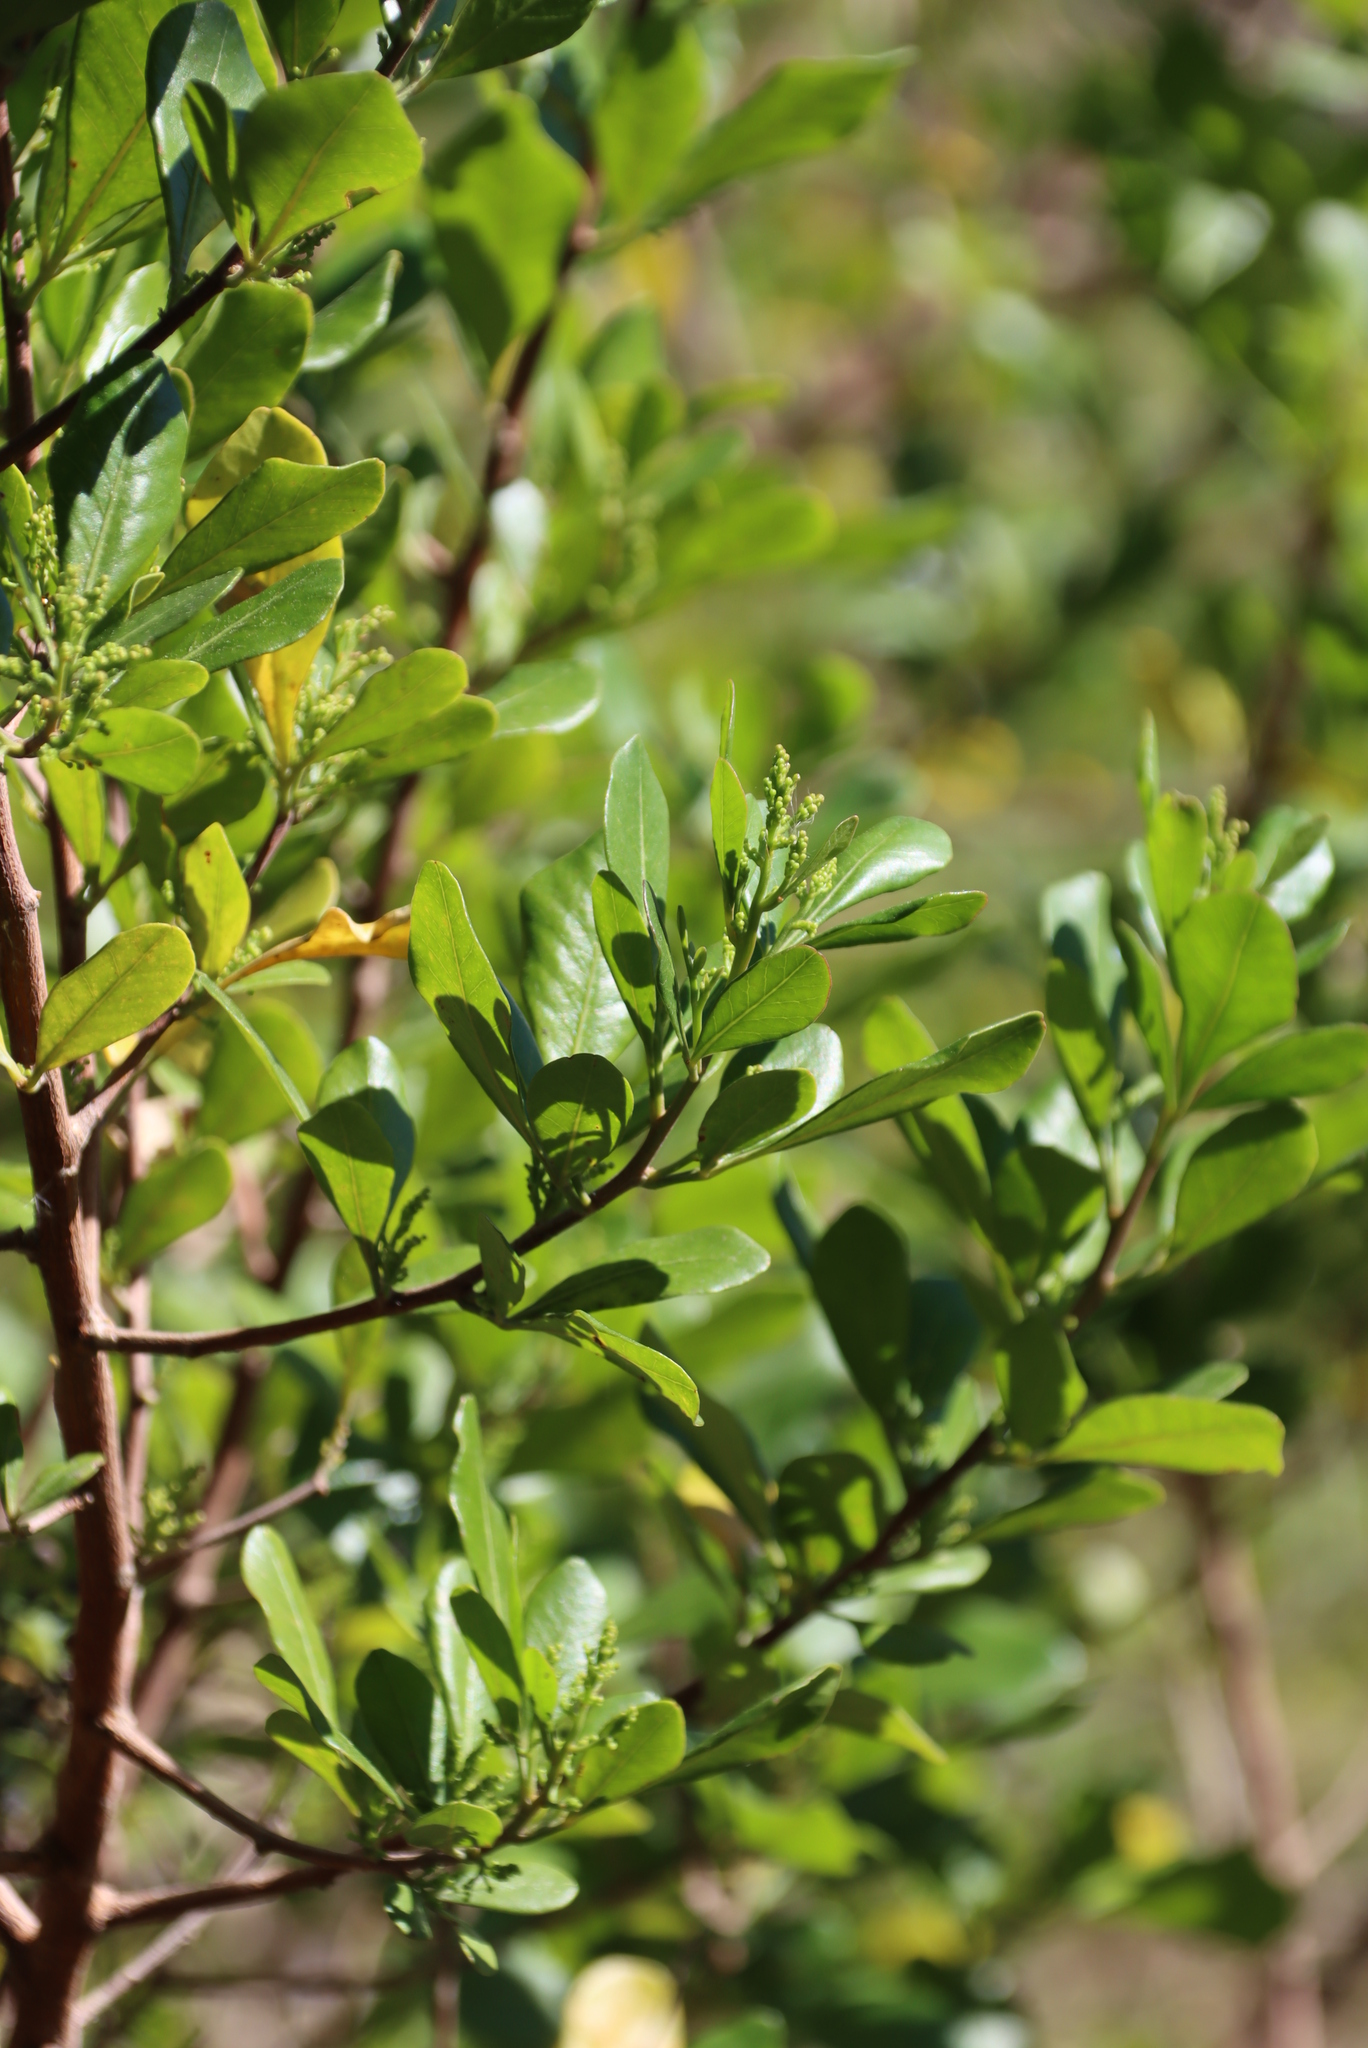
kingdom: Plantae
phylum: Tracheophyta
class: Magnoliopsida
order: Sapindales
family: Anacardiaceae
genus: Searsia
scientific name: Searsia lucida
